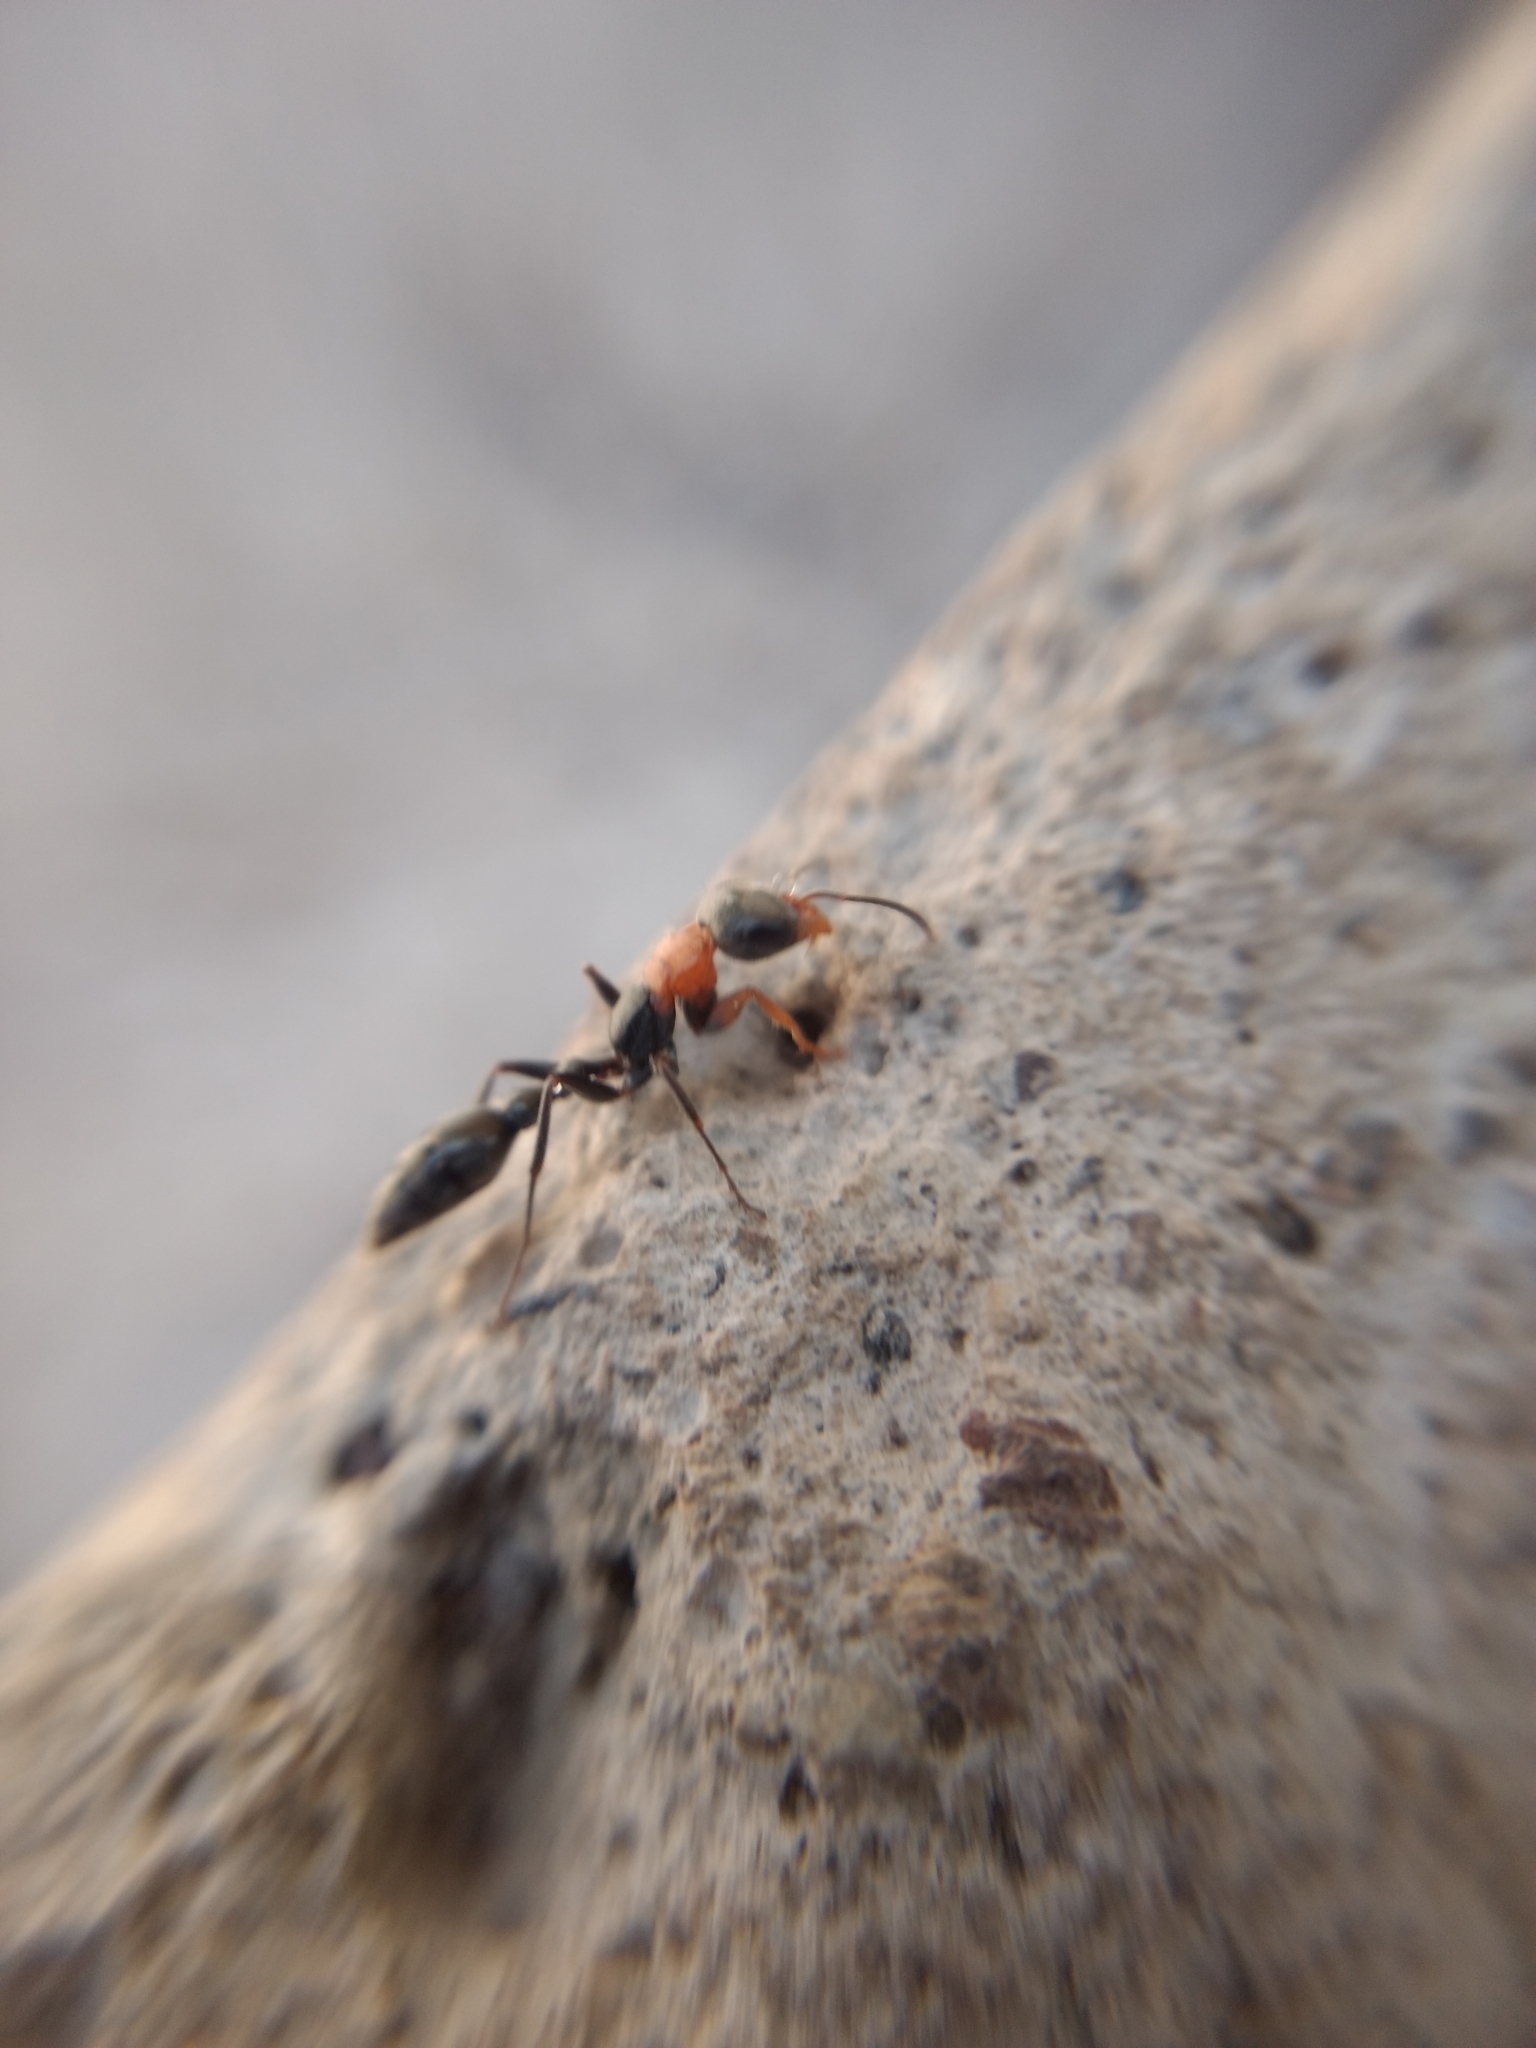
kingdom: Animalia
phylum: Arthropoda
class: Insecta
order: Hymenoptera
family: Formicidae
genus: Pseudomyrmex
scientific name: Pseudomyrmex gracilis
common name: Graceful twig ant
